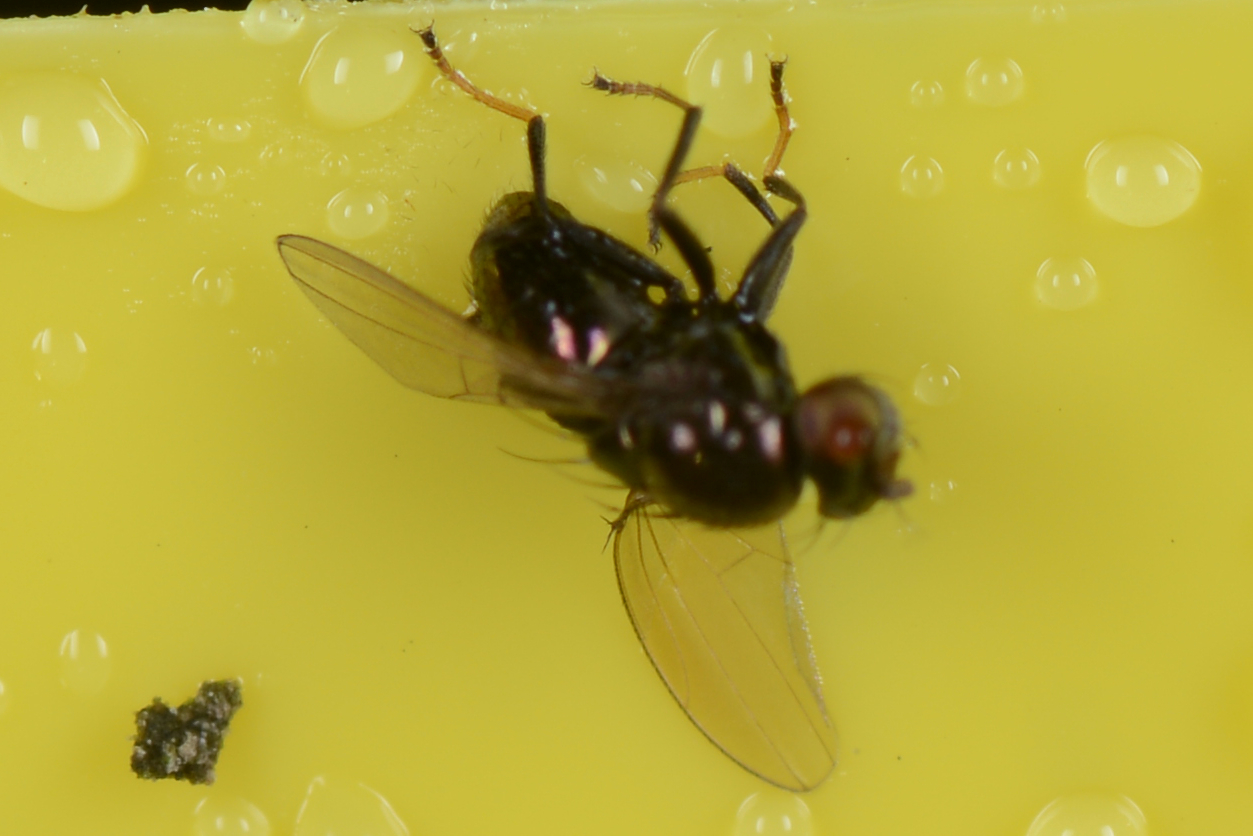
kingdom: Animalia
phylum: Arthropoda
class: Insecta
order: Diptera
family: Ephydridae
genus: Diasemocera
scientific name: Diasemocera metallica
